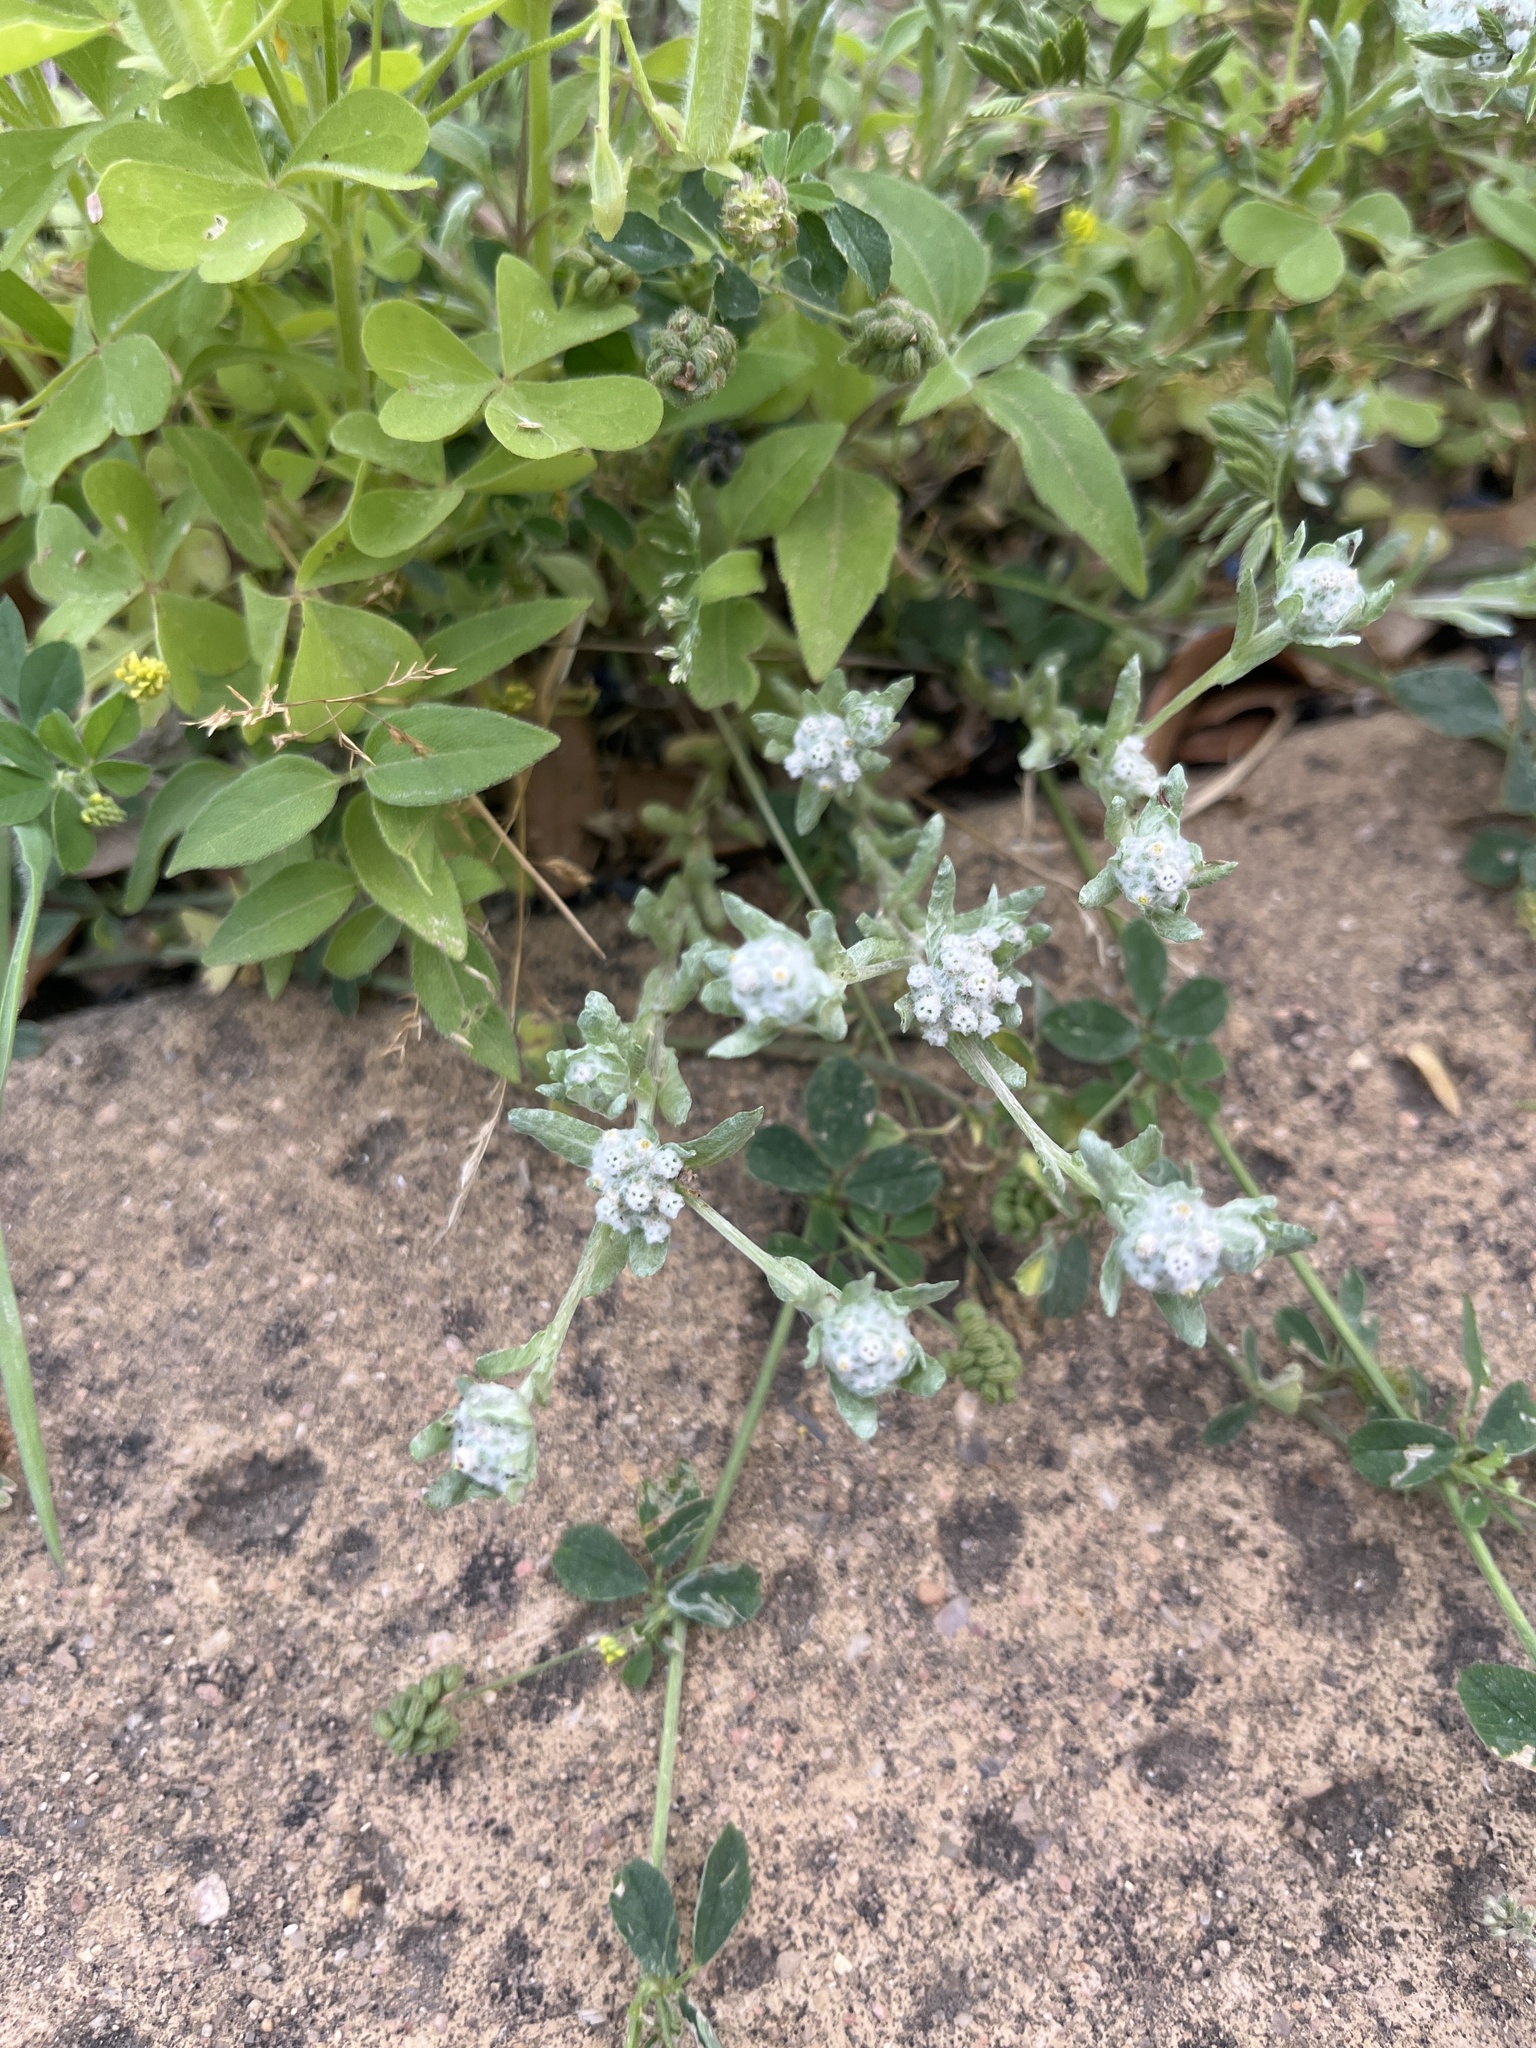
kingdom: Plantae
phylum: Tracheophyta
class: Magnoliopsida
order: Asterales
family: Asteraceae
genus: Diaperia
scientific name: Diaperia verna
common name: Many-stem rabbit-tobacco
